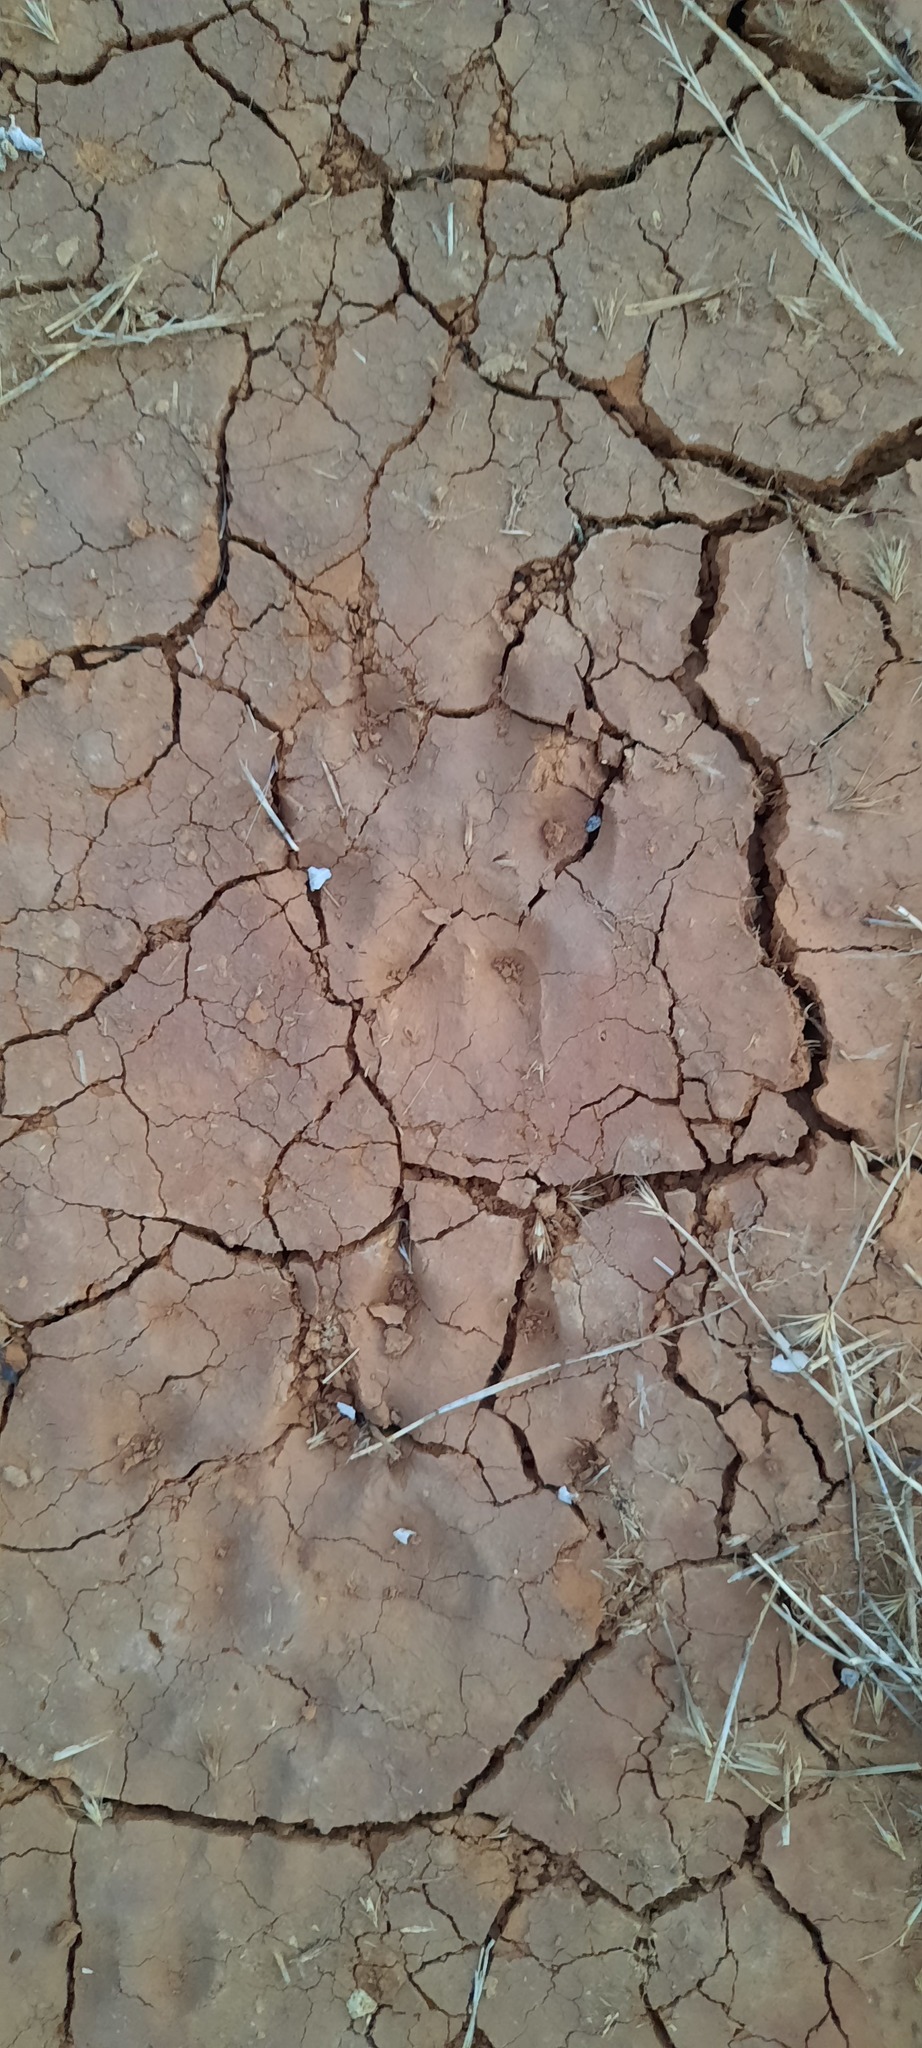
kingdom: Animalia
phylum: Chordata
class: Mammalia
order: Carnivora
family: Canidae
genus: Vulpes
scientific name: Vulpes vulpes
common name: Red fox
